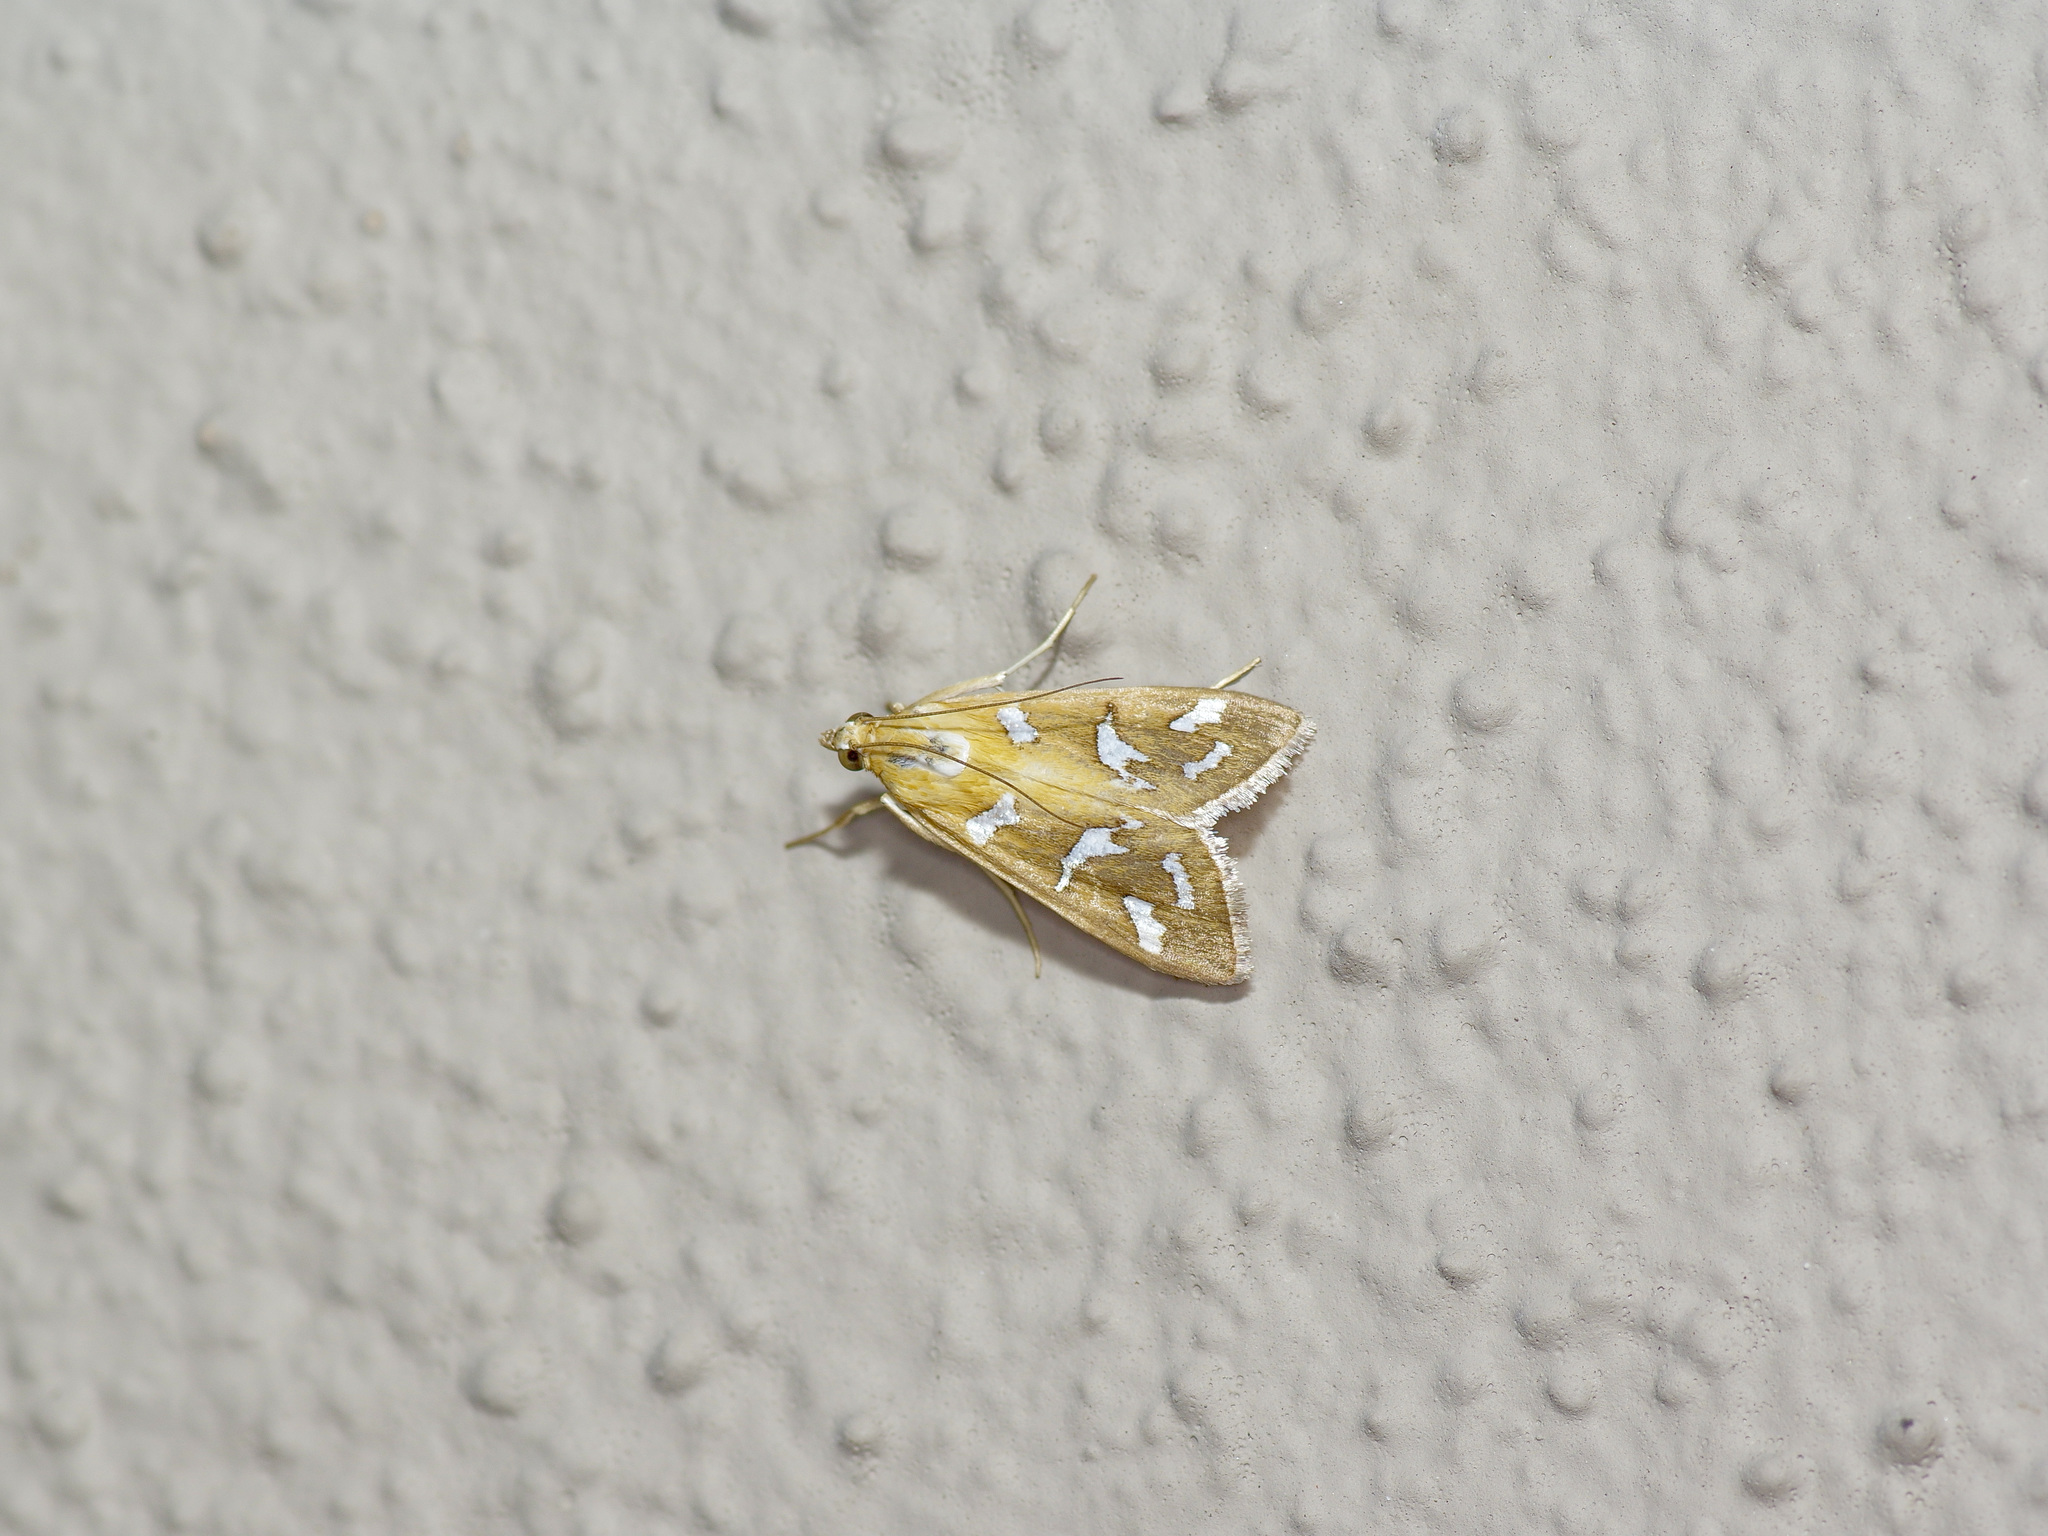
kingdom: Animalia
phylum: Arthropoda
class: Insecta
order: Lepidoptera
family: Crambidae
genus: Diastictis
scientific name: Diastictis fracturalis
